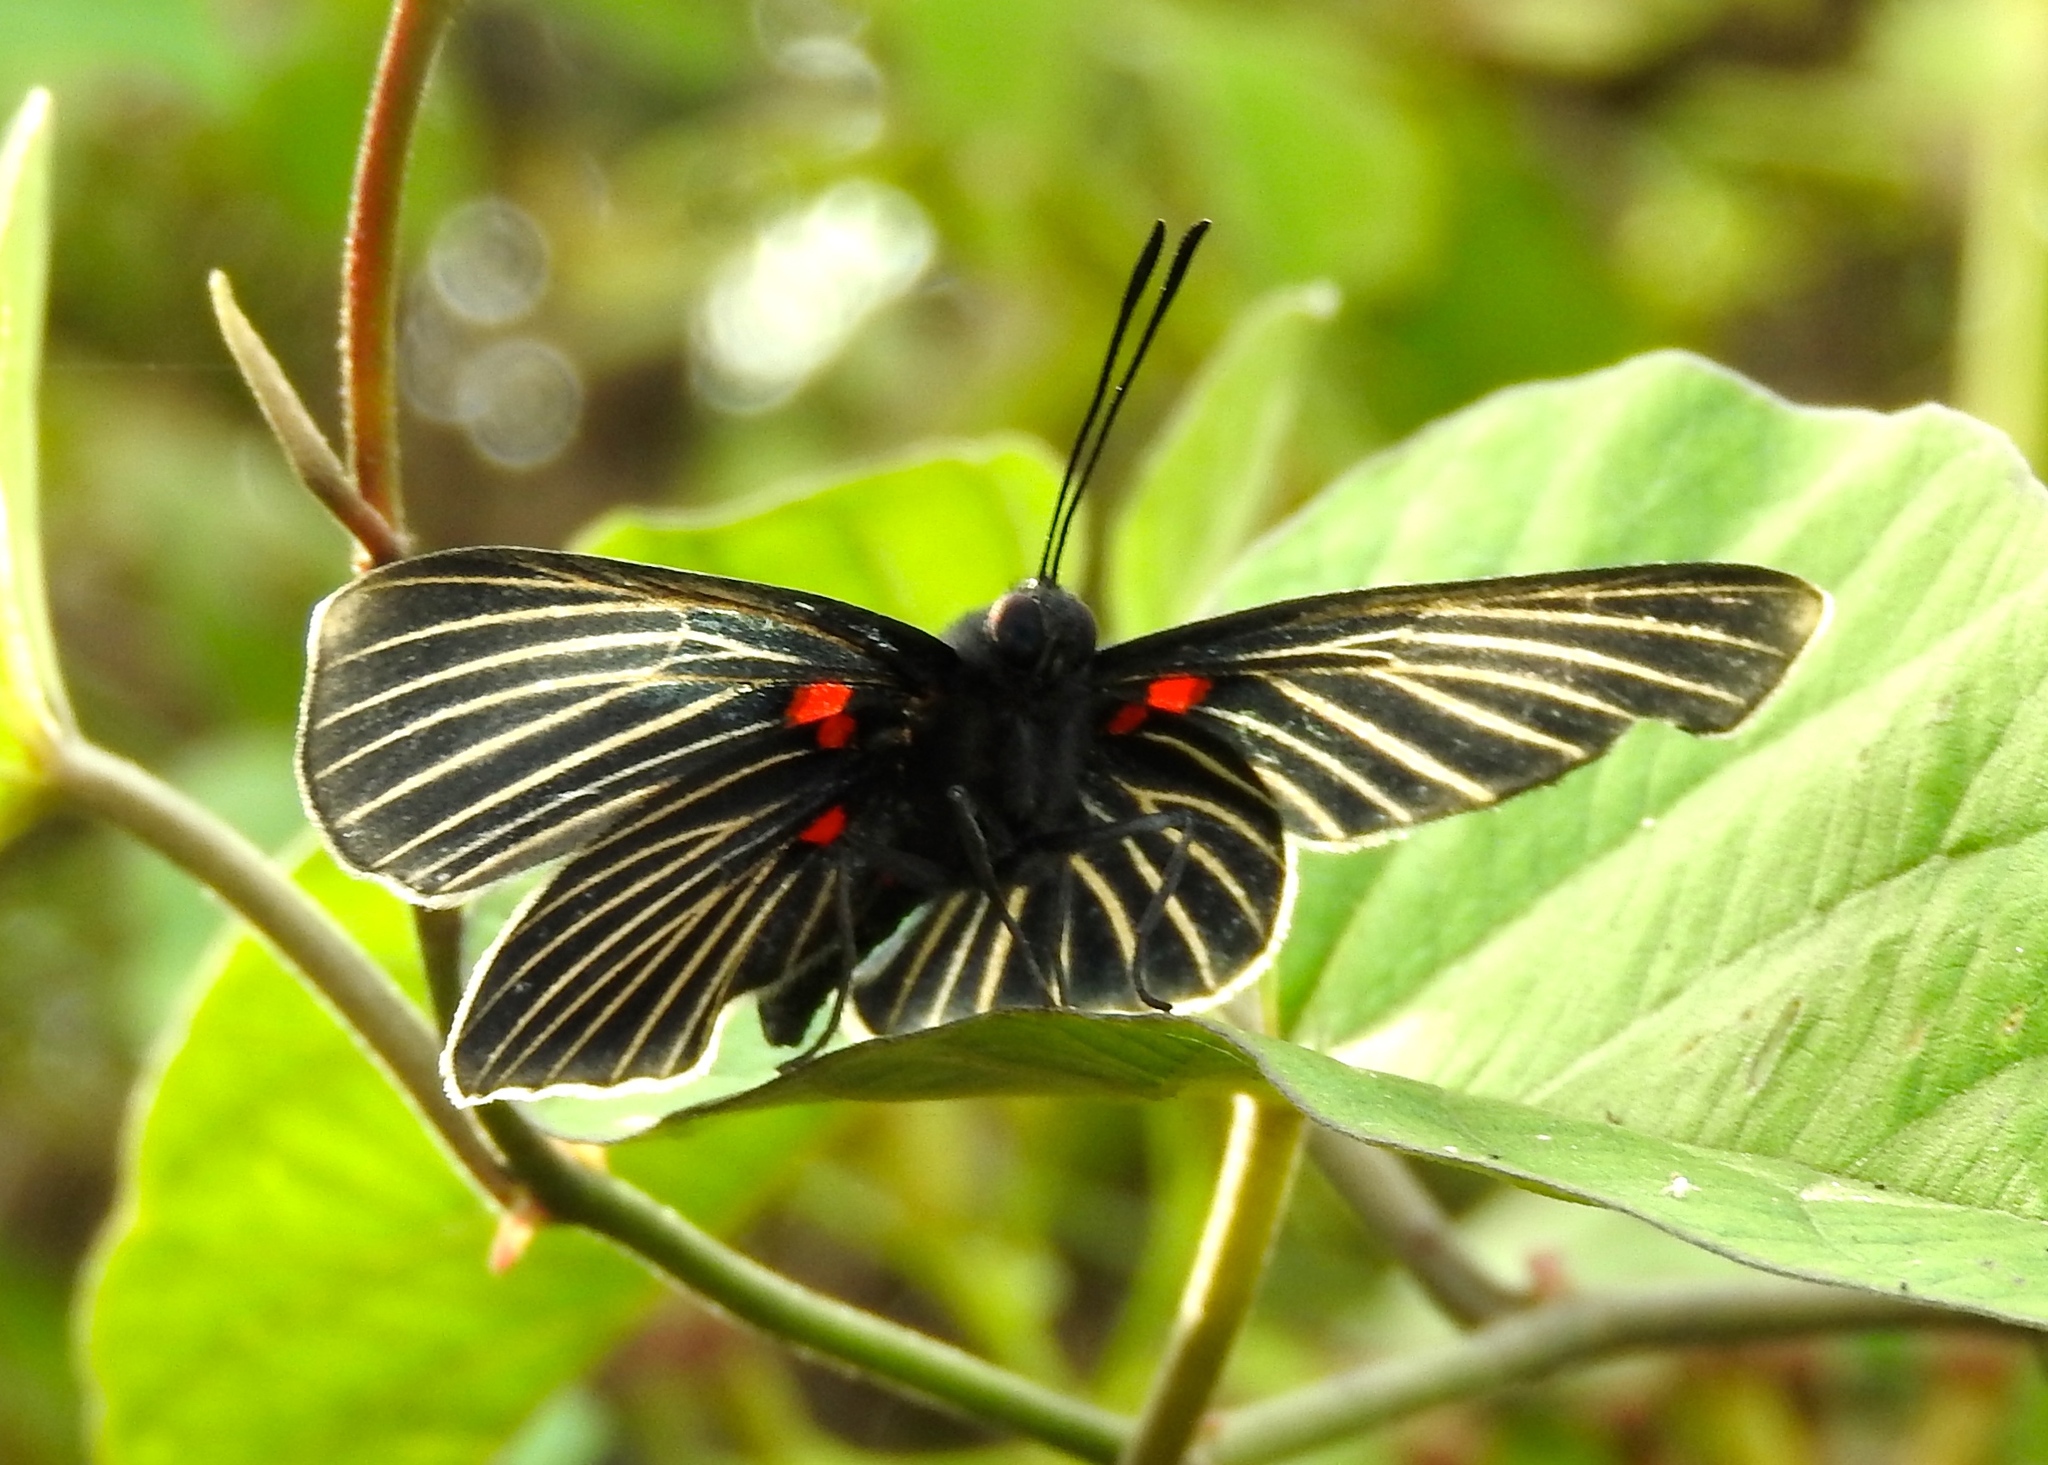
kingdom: Animalia
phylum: Arthropoda
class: Insecta
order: Lepidoptera
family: Lycaenidae
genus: Melanis
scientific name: Melanis
